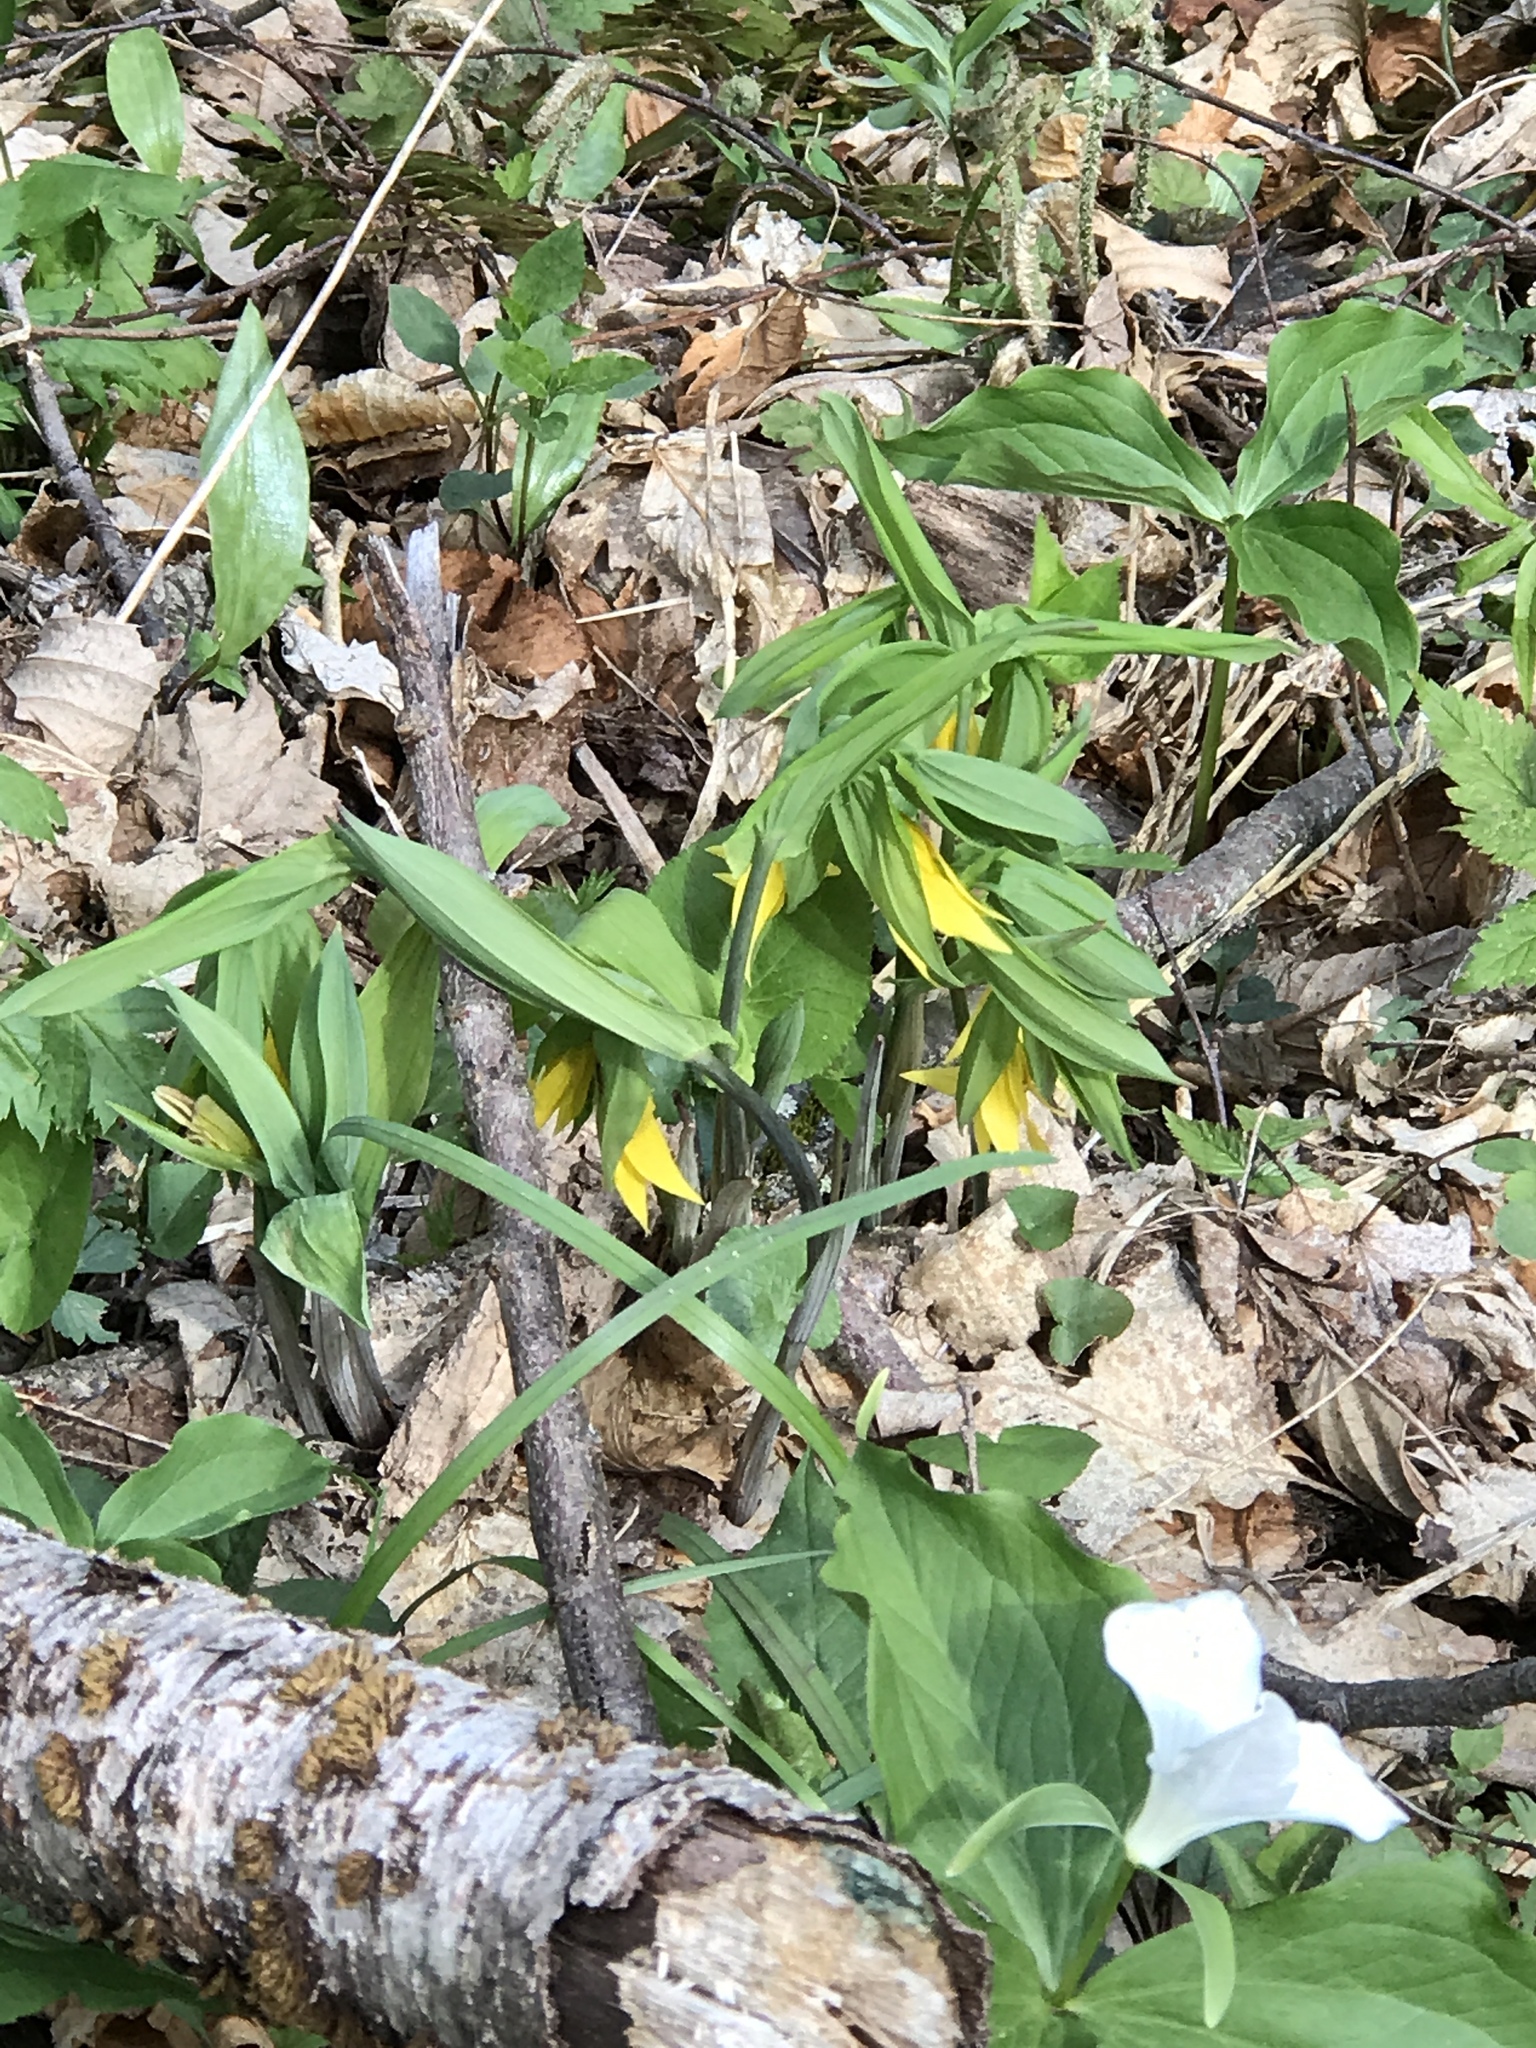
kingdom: Plantae
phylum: Tracheophyta
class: Liliopsida
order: Liliales
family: Colchicaceae
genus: Uvularia
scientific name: Uvularia grandiflora
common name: Bellwort
